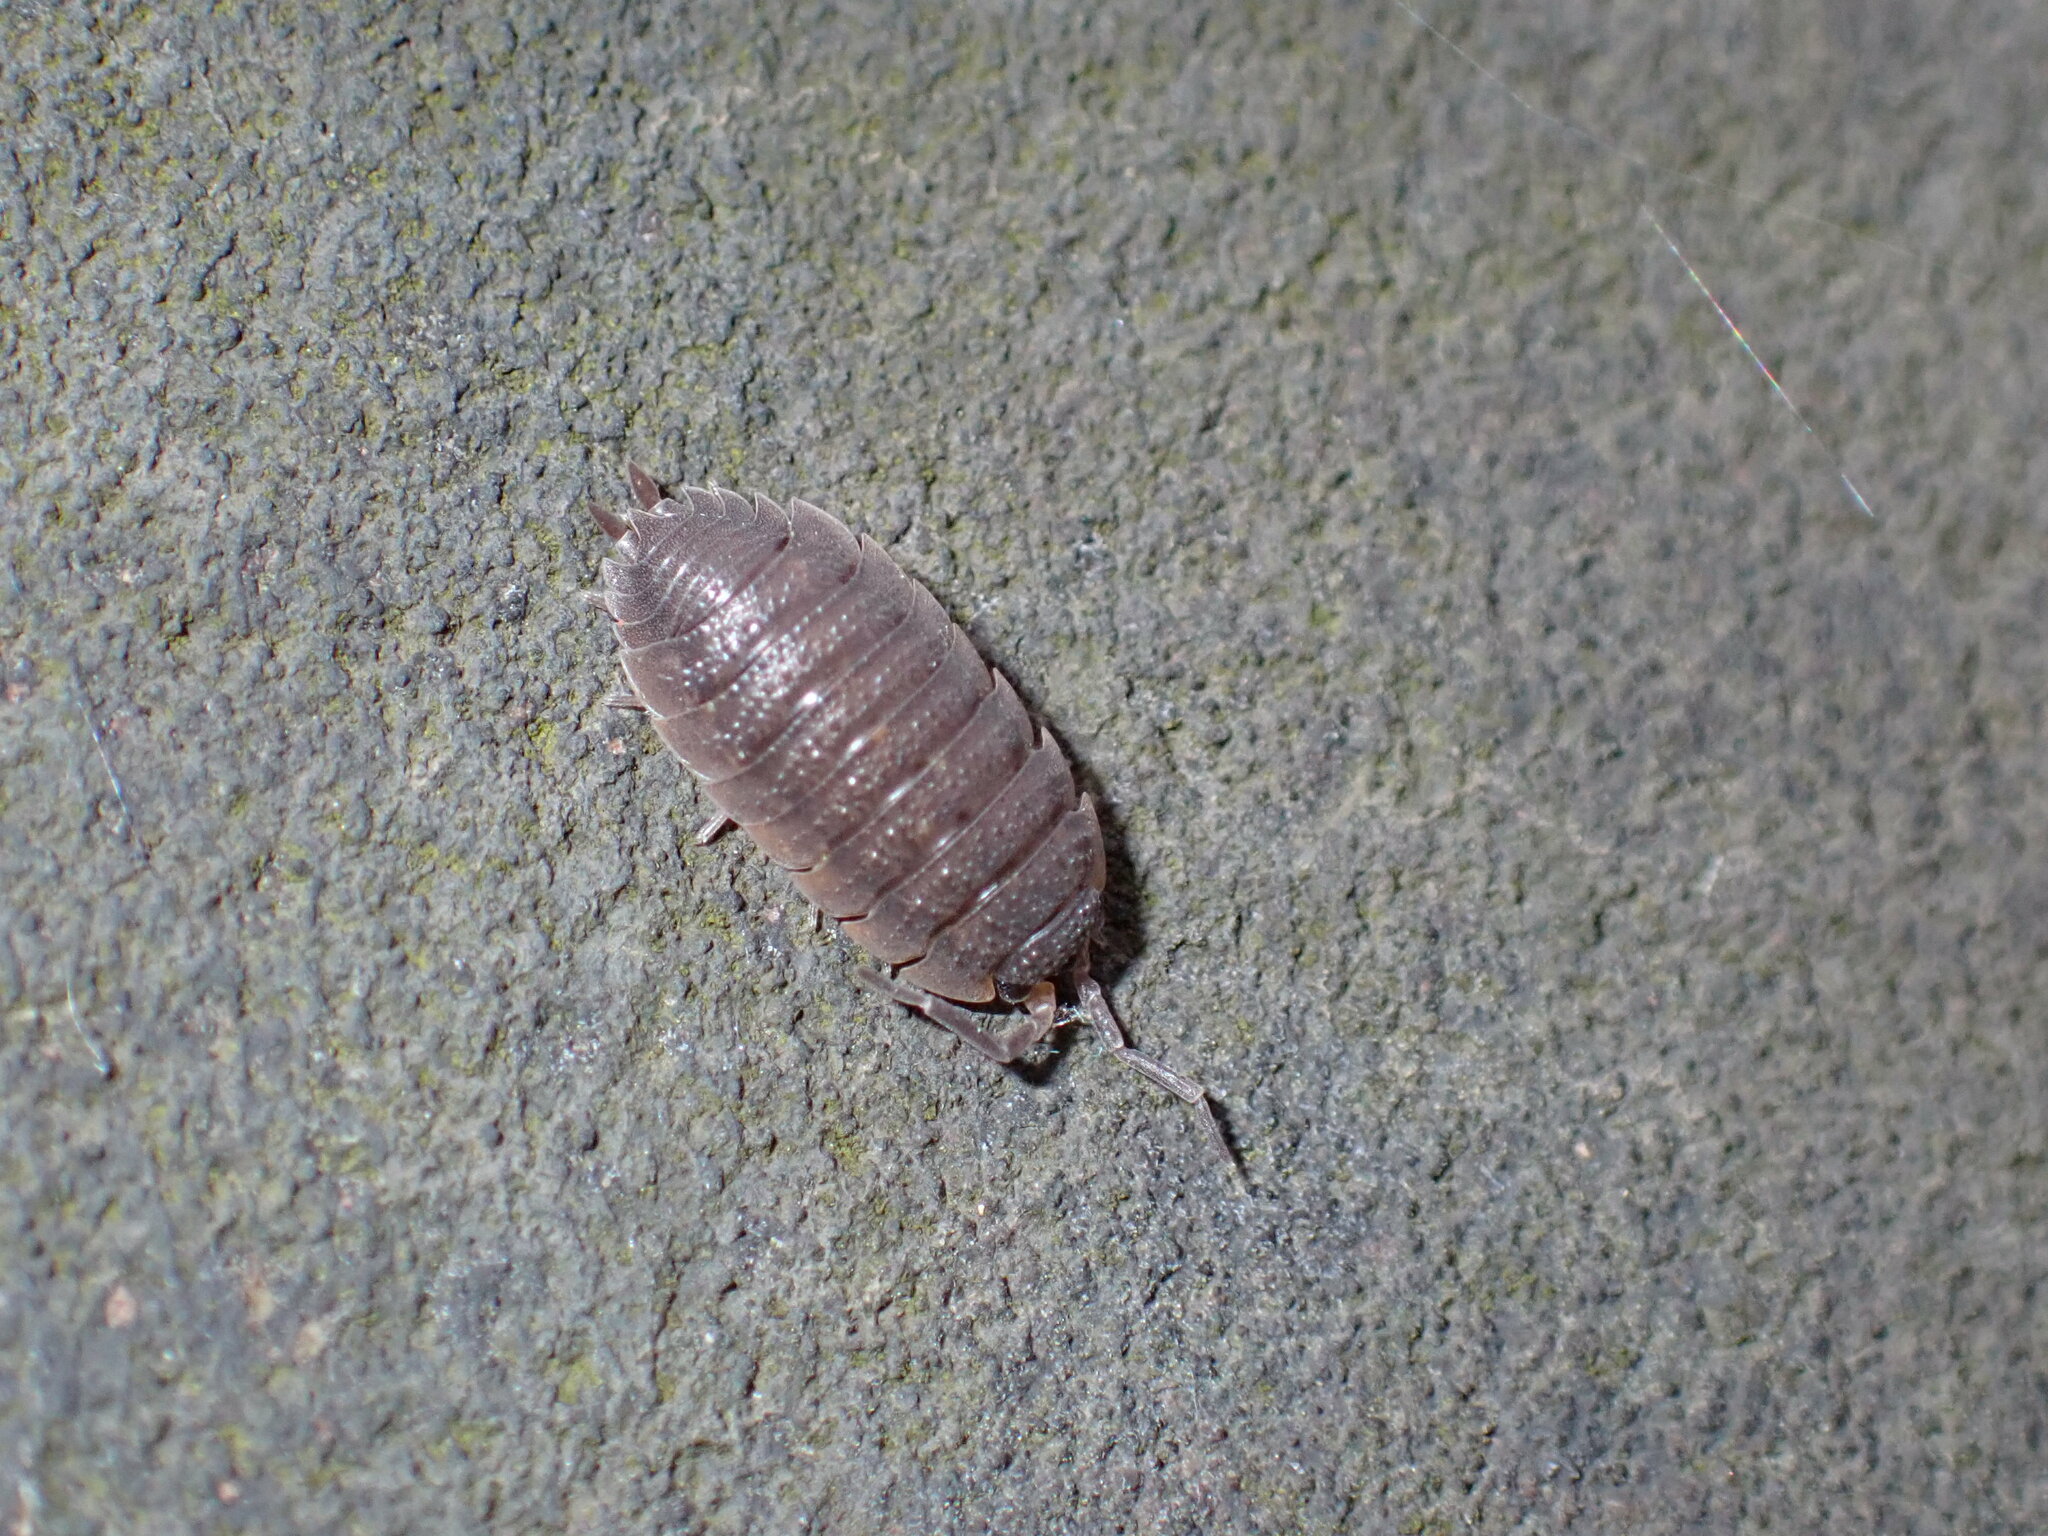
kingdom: Animalia
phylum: Arthropoda
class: Malacostraca
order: Isopoda
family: Porcellionidae
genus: Porcellio
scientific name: Porcellio scaber
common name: Common rough woodlouse
